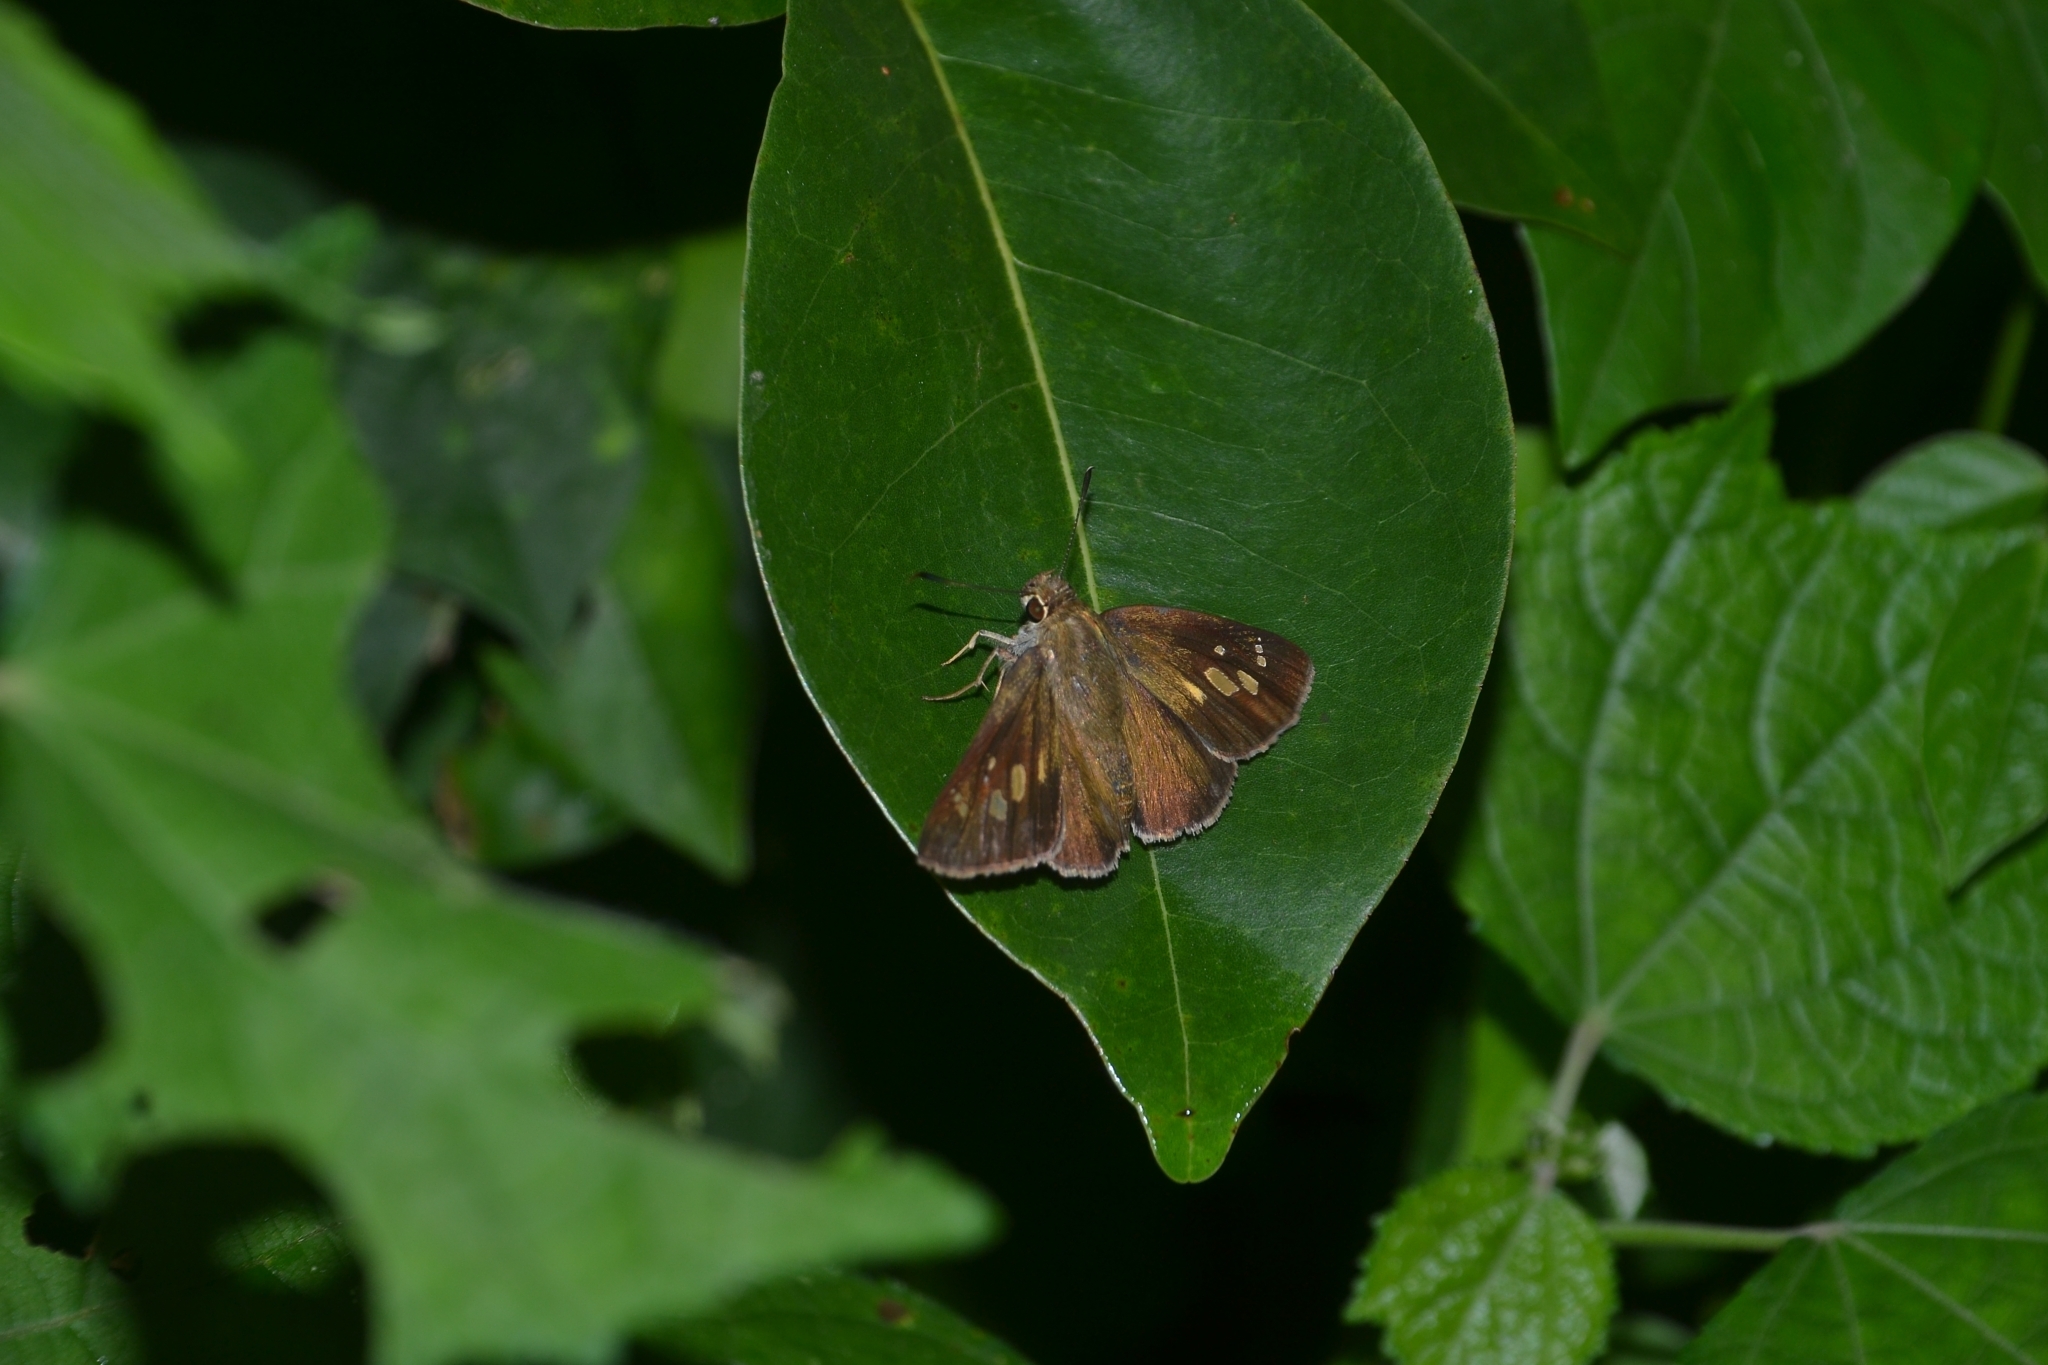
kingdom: Animalia
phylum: Arthropoda
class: Insecta
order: Lepidoptera
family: Hesperiidae
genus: Suastus
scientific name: Suastus gremius
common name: Indian palm bob
